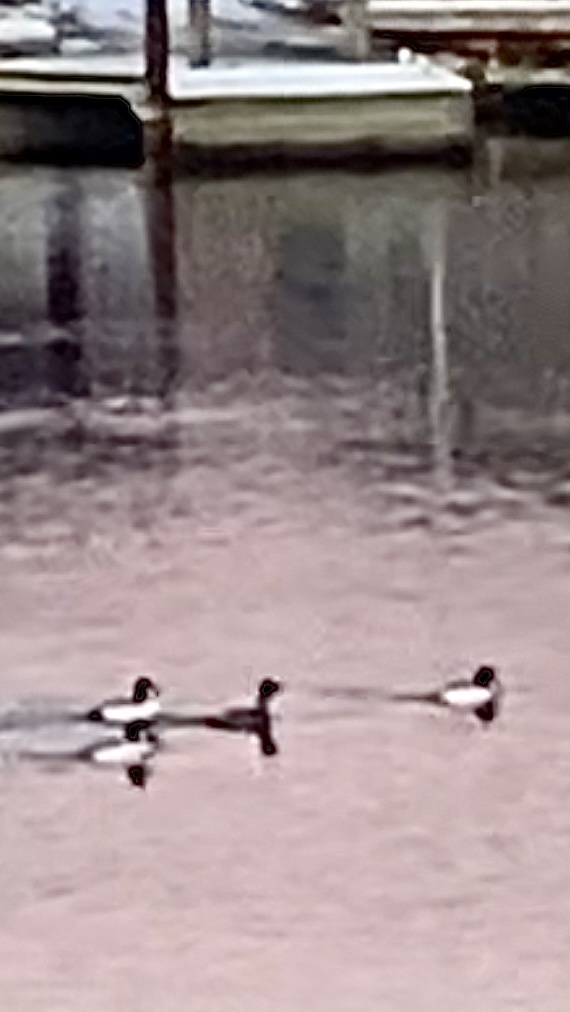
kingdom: Animalia
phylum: Chordata
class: Aves
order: Anseriformes
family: Anatidae
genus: Bucephala
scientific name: Bucephala clangula
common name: Common goldeneye
